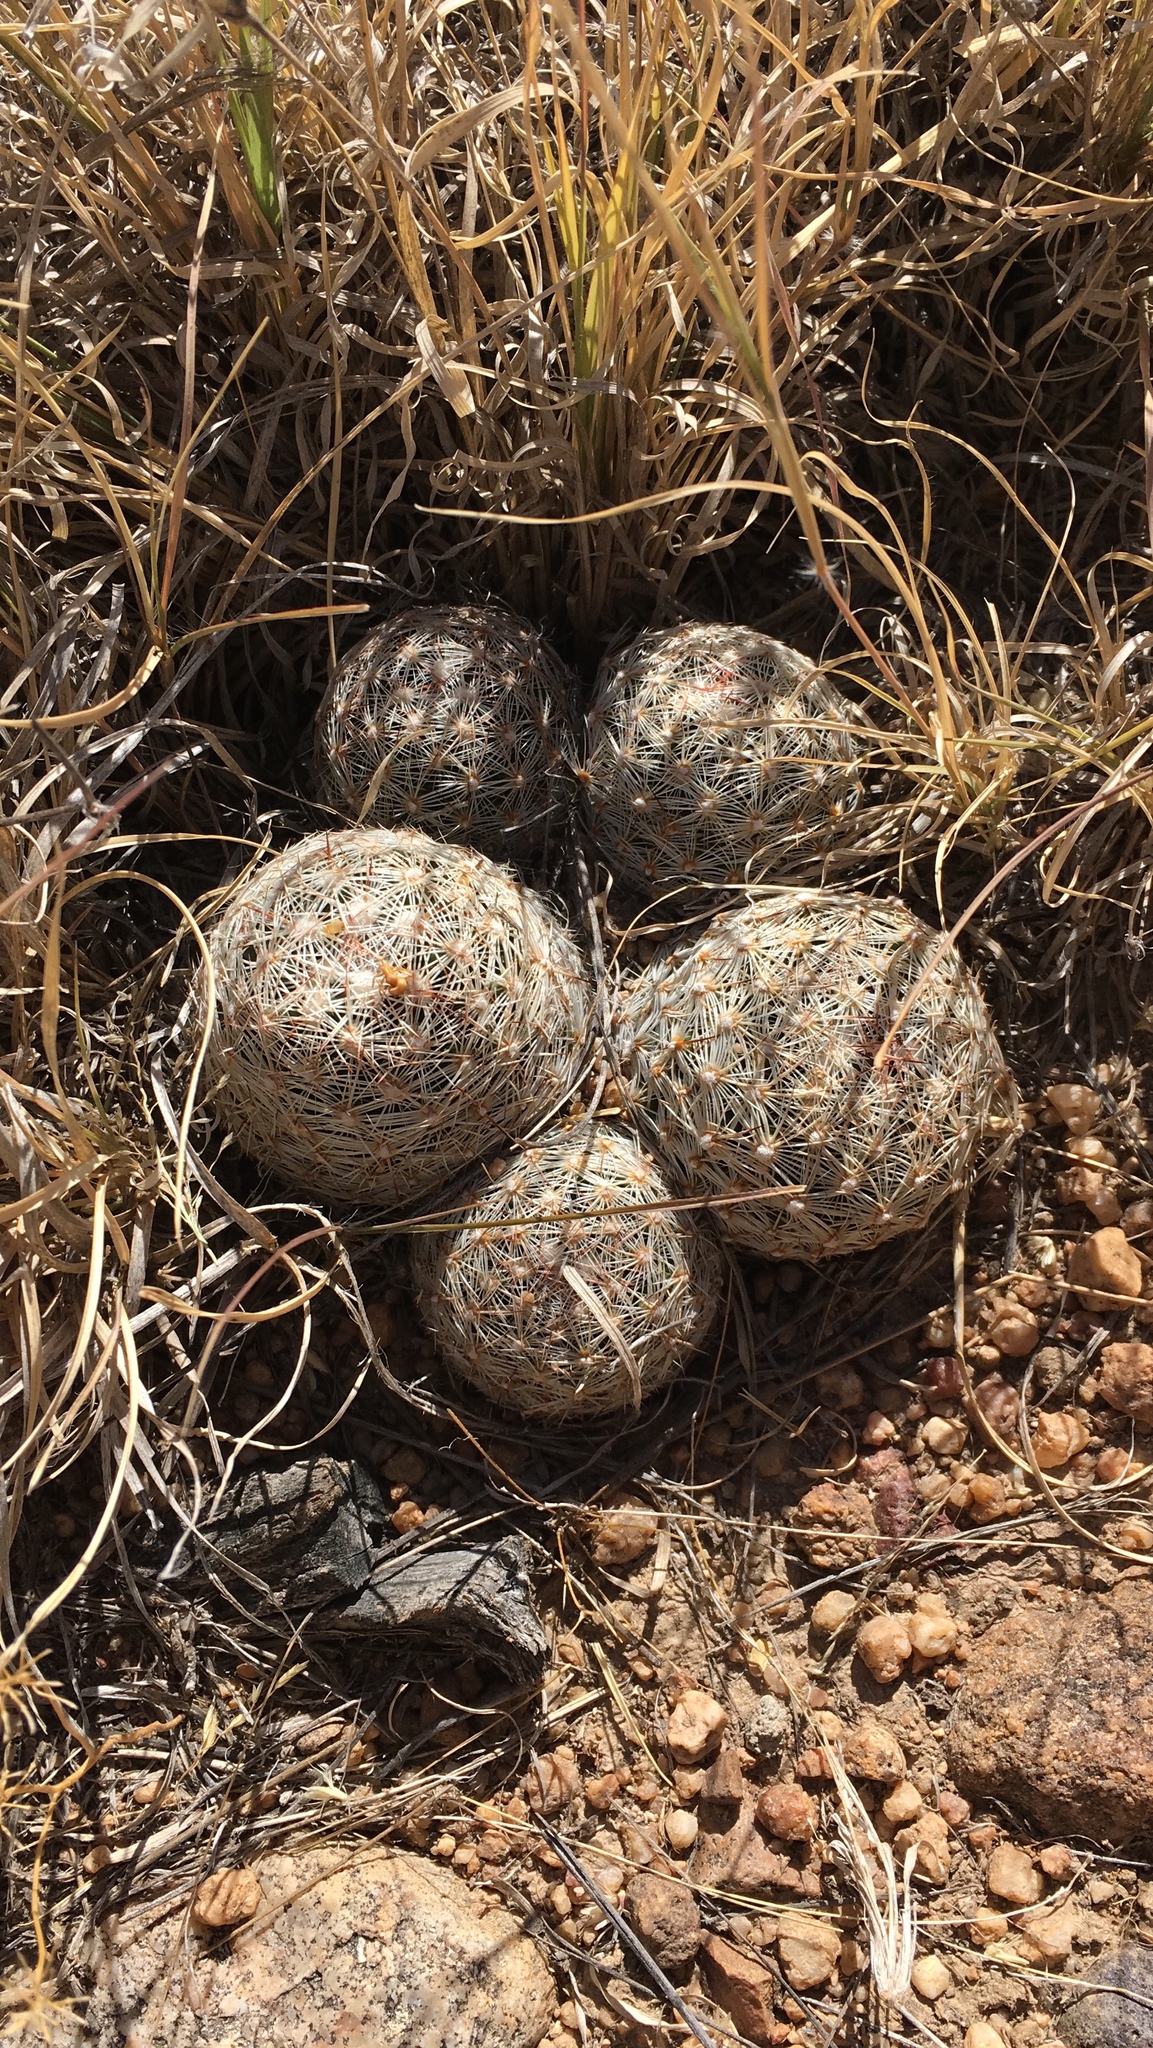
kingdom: Plantae
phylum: Tracheophyta
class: Magnoliopsida
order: Caryophyllales
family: Cactaceae
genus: Pelecyphora
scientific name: Pelecyphora vivipara
